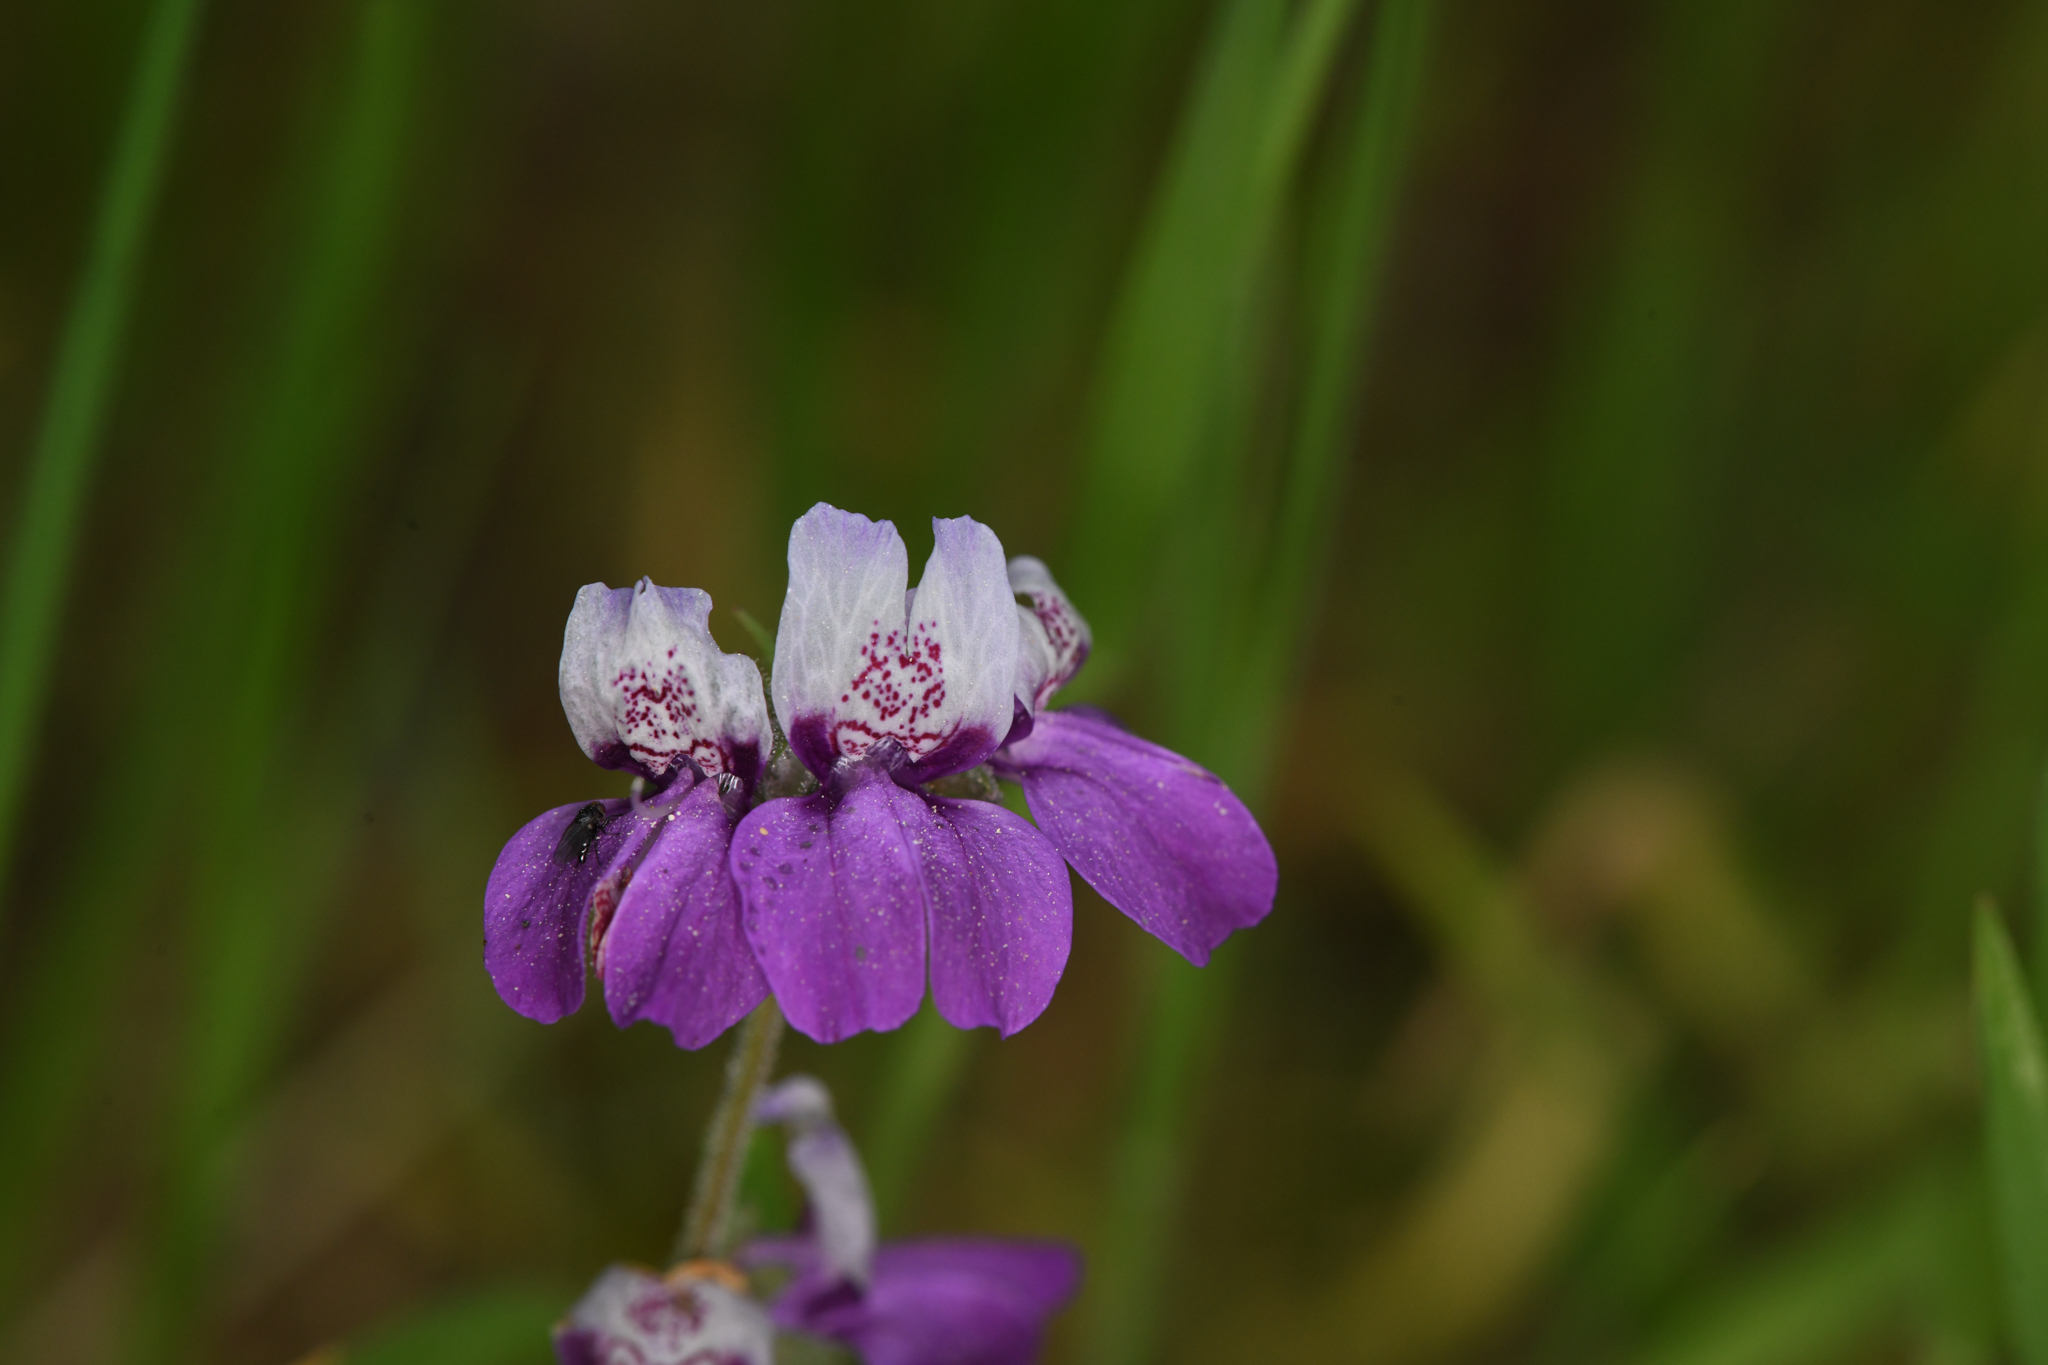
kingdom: Plantae
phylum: Tracheophyta
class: Magnoliopsida
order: Lamiales
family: Plantaginaceae
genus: Collinsia
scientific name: Collinsia heterophylla
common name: Chinese-houses
